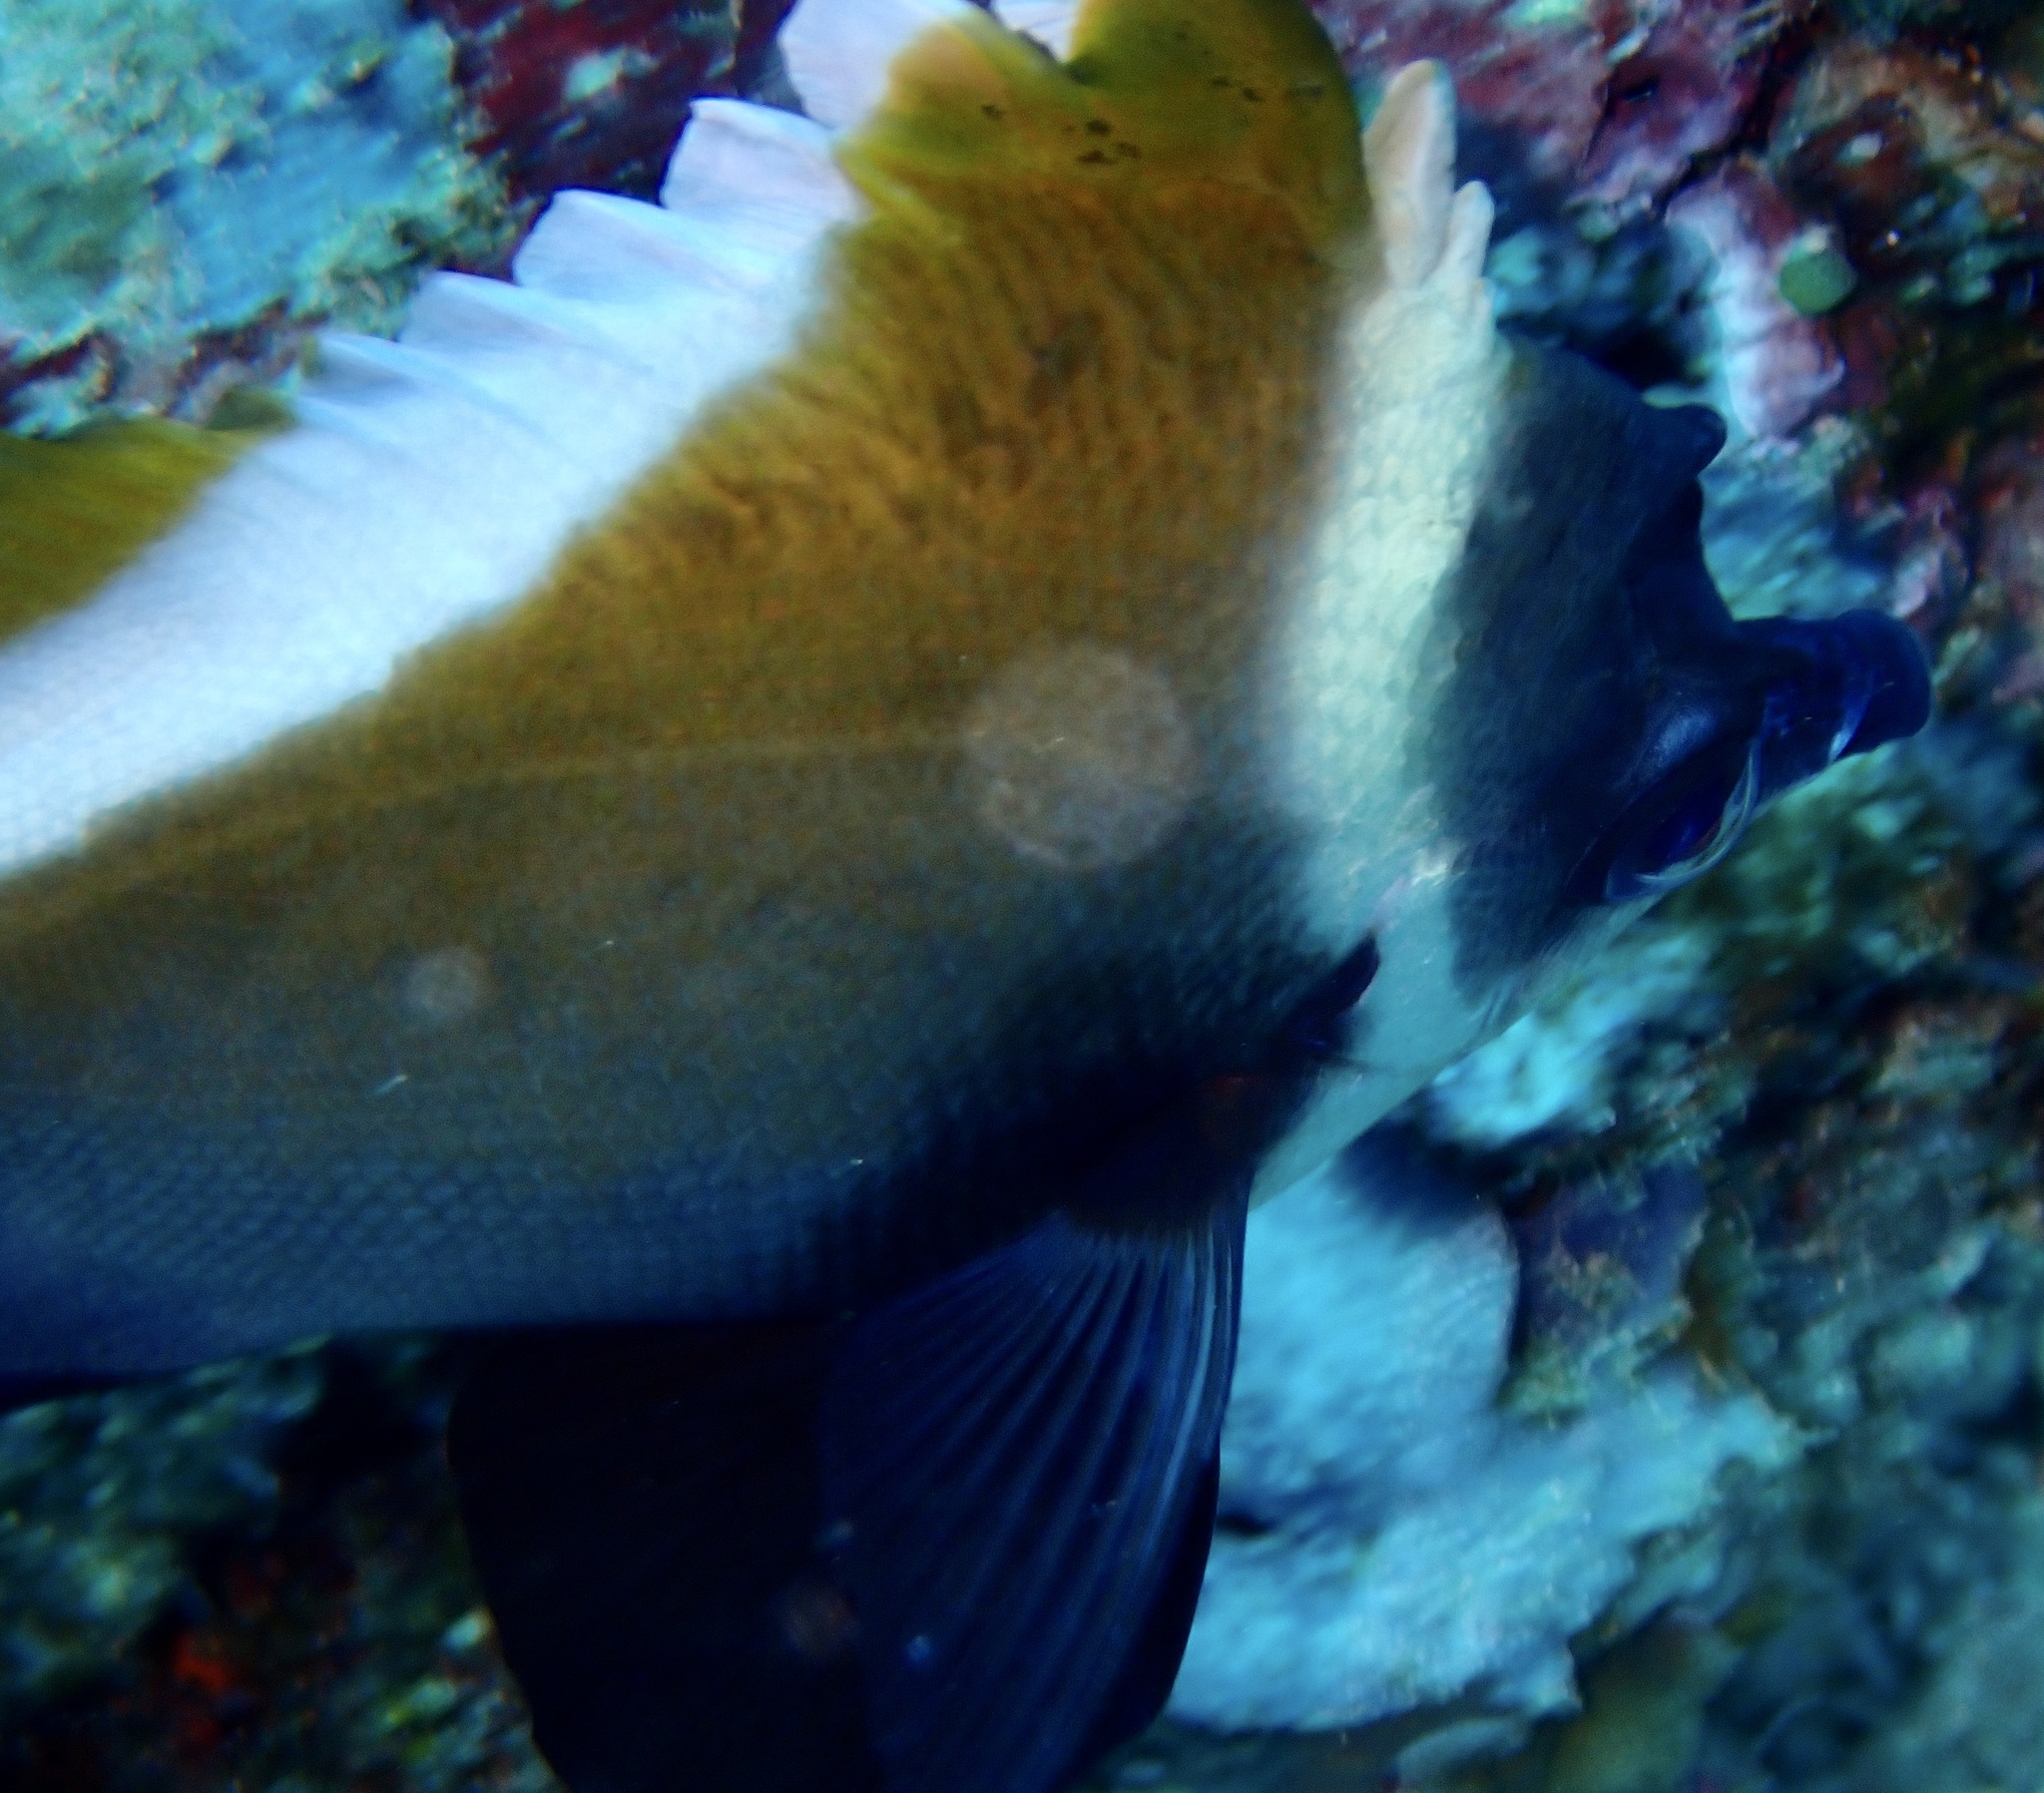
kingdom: Animalia
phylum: Chordata
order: Perciformes
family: Chaetodontidae
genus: Heniochus
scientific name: Heniochus varius
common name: Horned bannerfish
